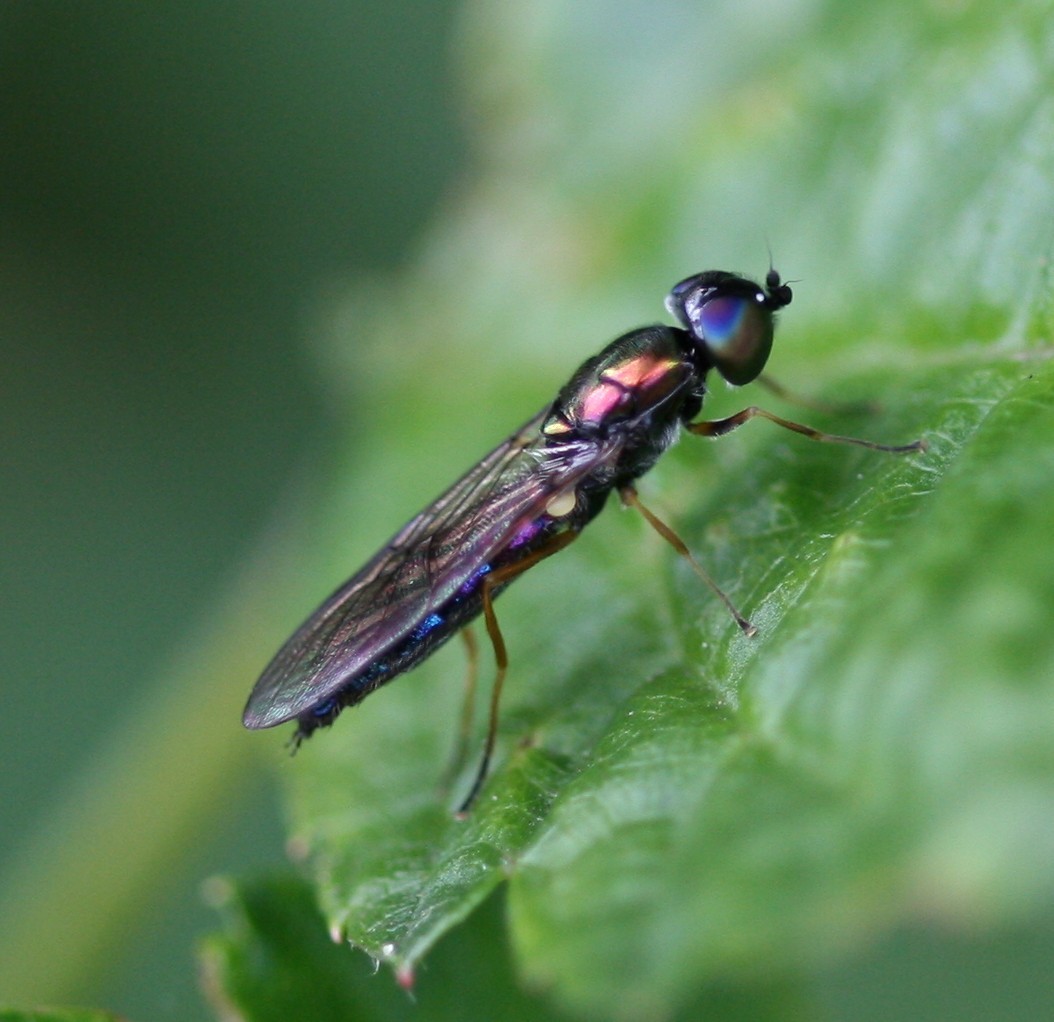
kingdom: Animalia
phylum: Arthropoda
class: Insecta
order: Diptera
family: Stratiomyidae
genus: Sargus
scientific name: Sargus flavipes
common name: Yellow-legged centurion
